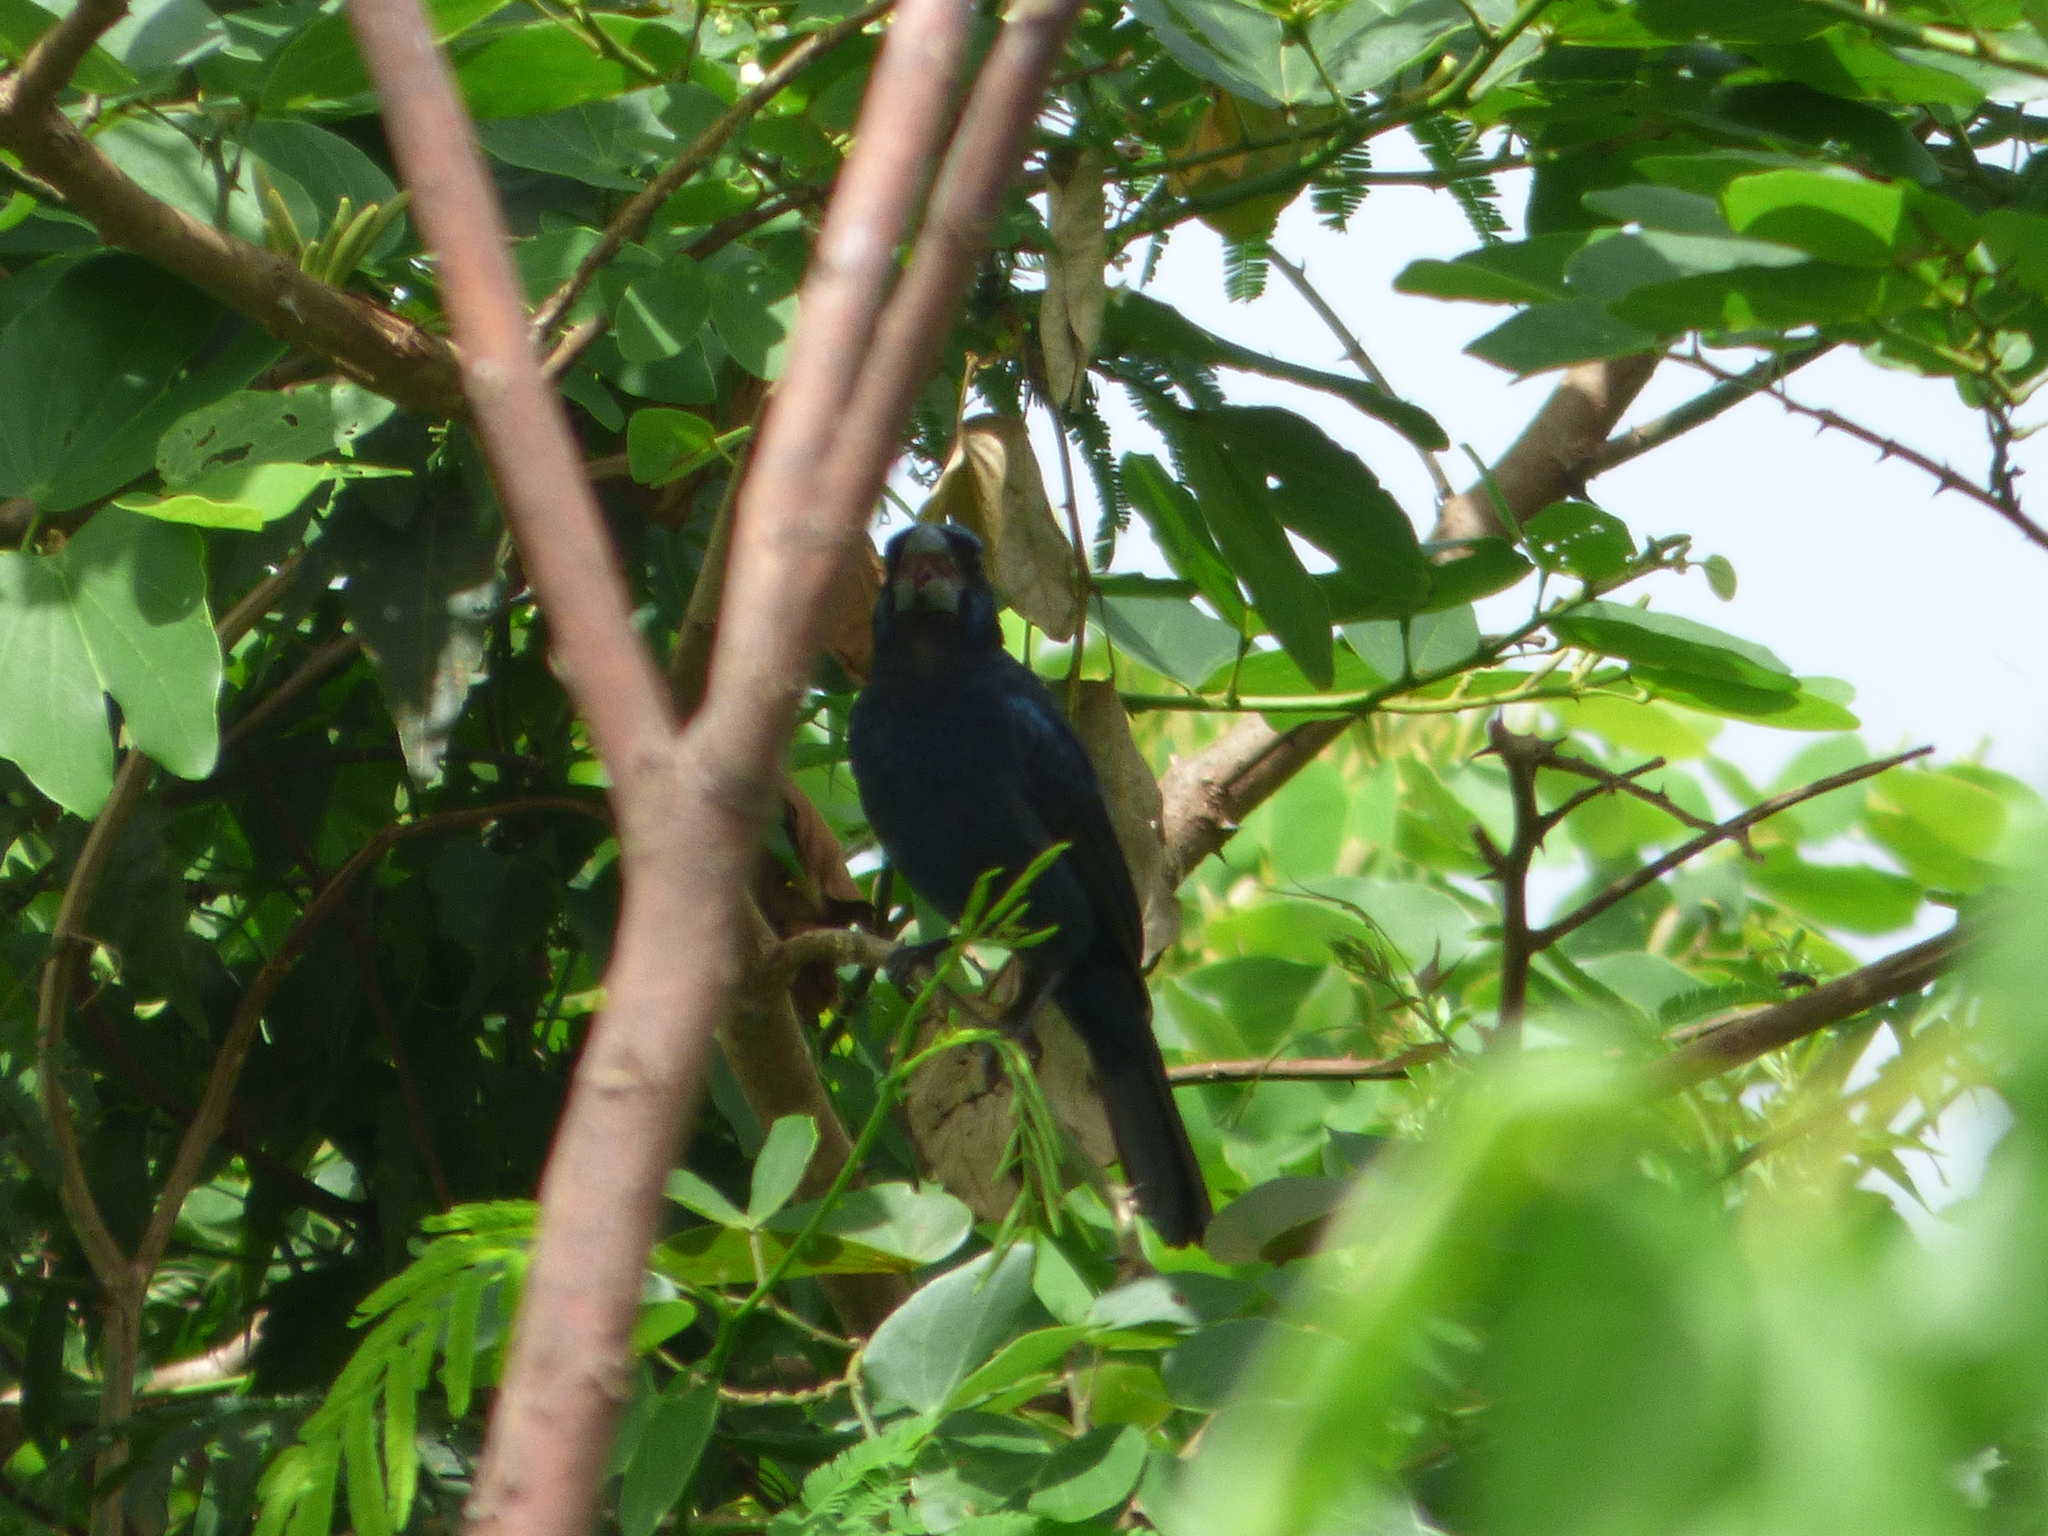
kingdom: Animalia
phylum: Chordata
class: Aves
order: Passeriformes
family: Cardinalidae
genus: Cyanoloxia
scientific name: Cyanoloxia brissonii
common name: Ultramarine grosbeak
